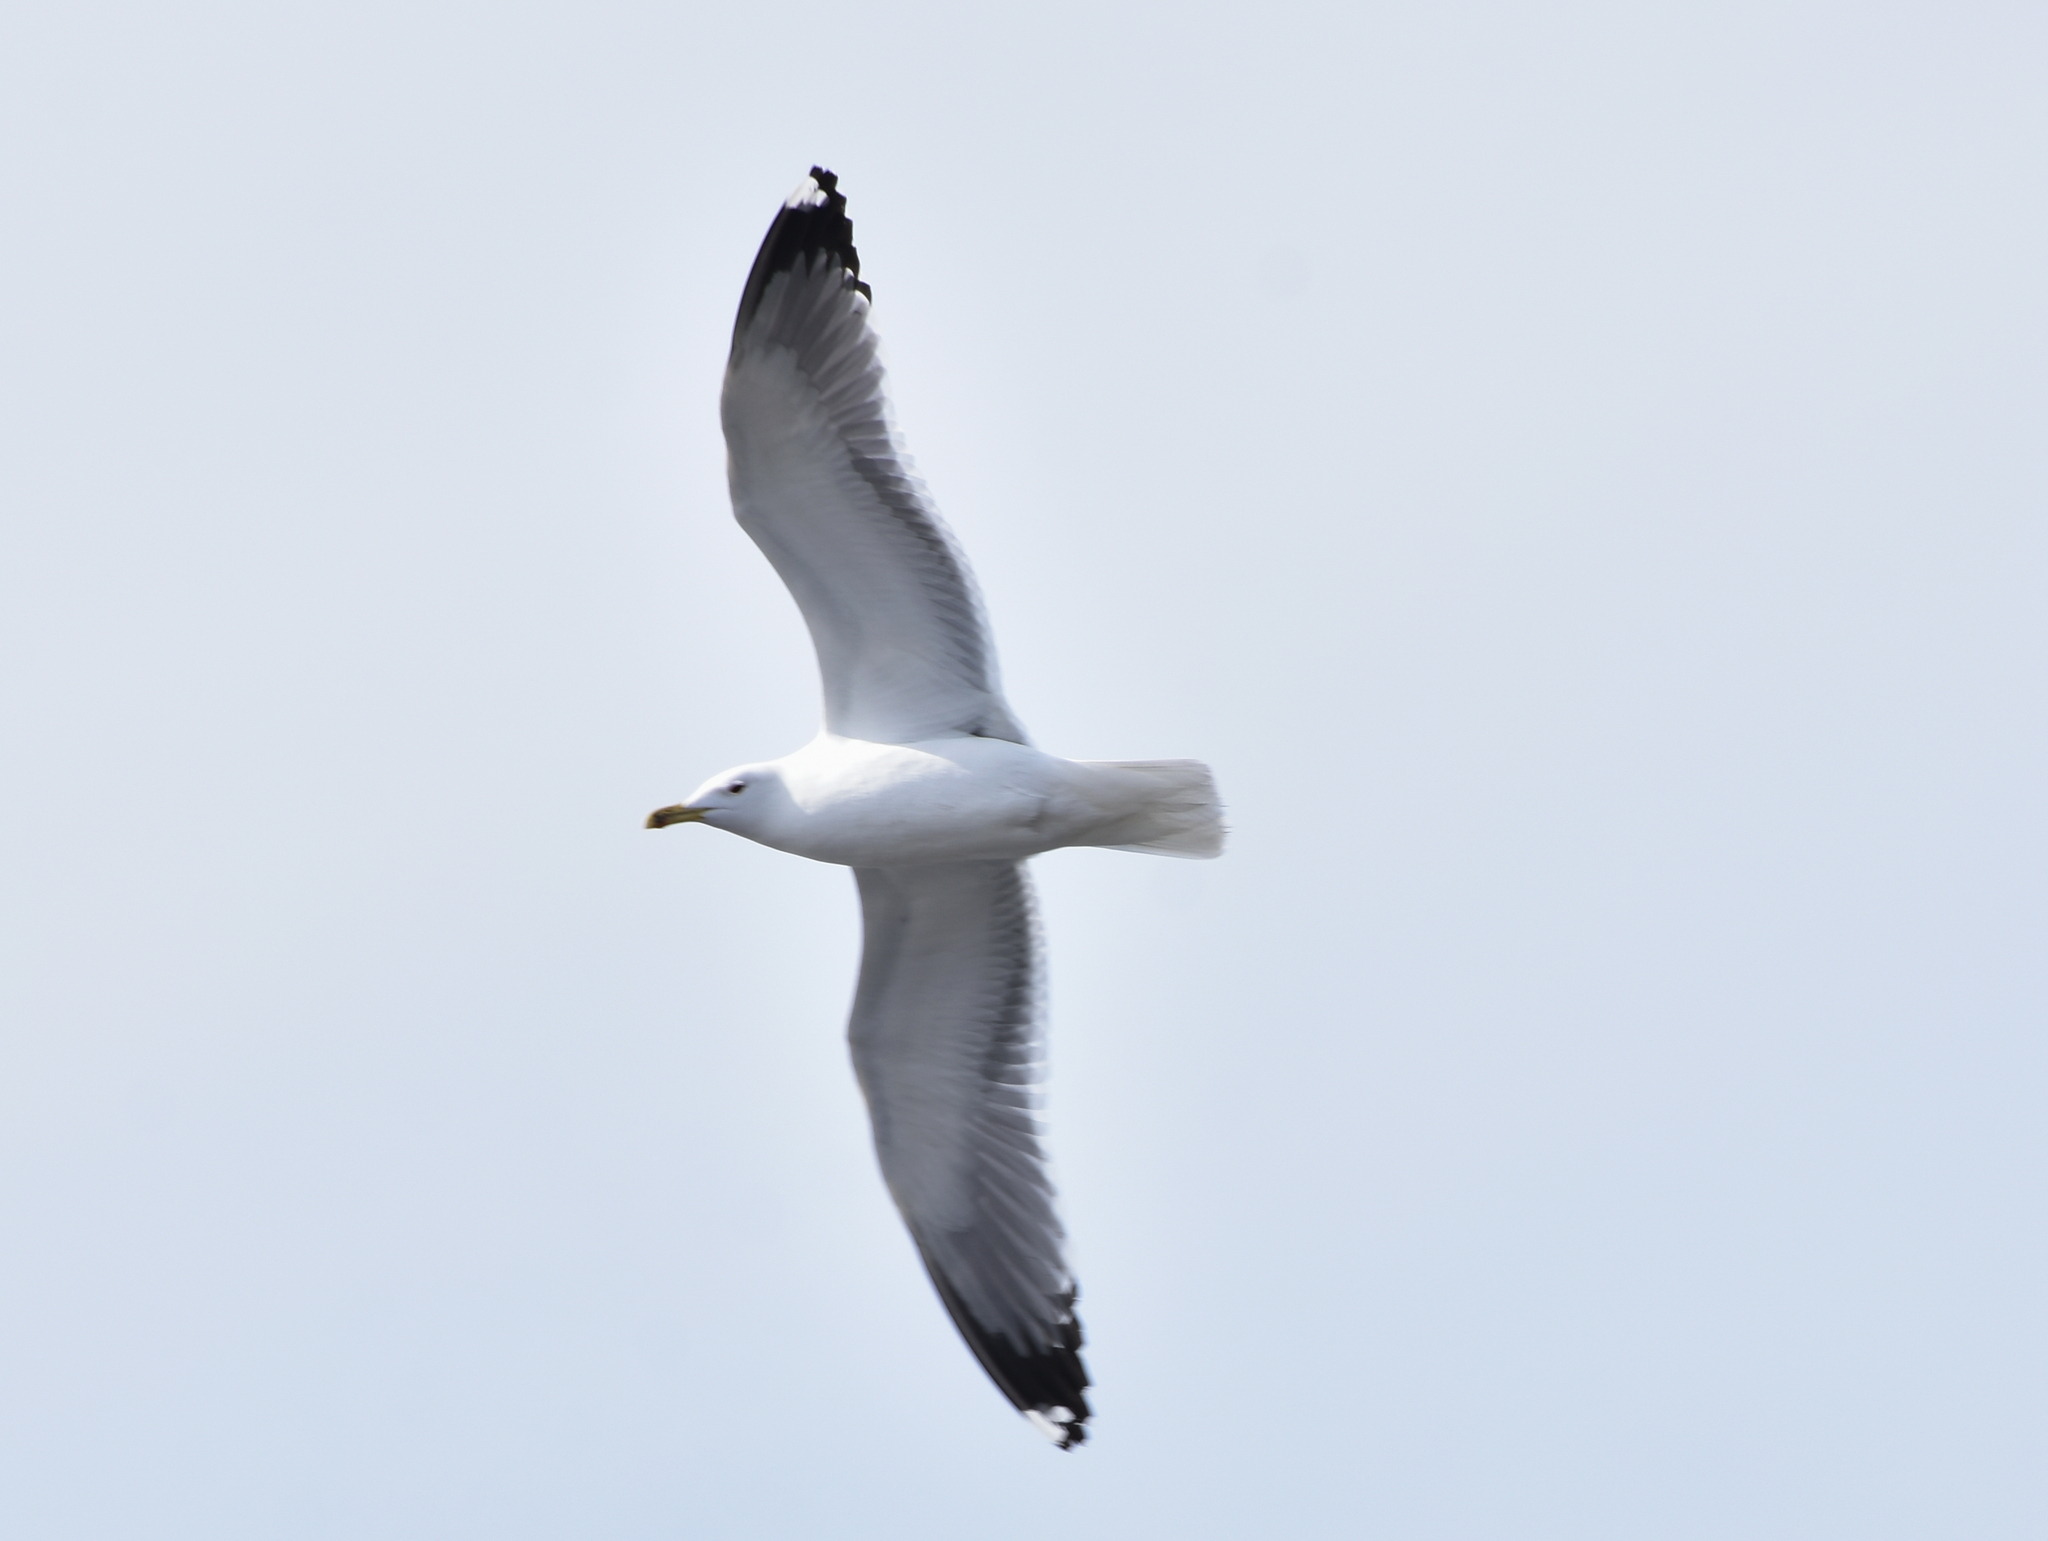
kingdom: Animalia
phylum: Chordata
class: Aves
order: Charadriiformes
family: Laridae
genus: Larus
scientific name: Larus fuscus
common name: Lesser black-backed gull
